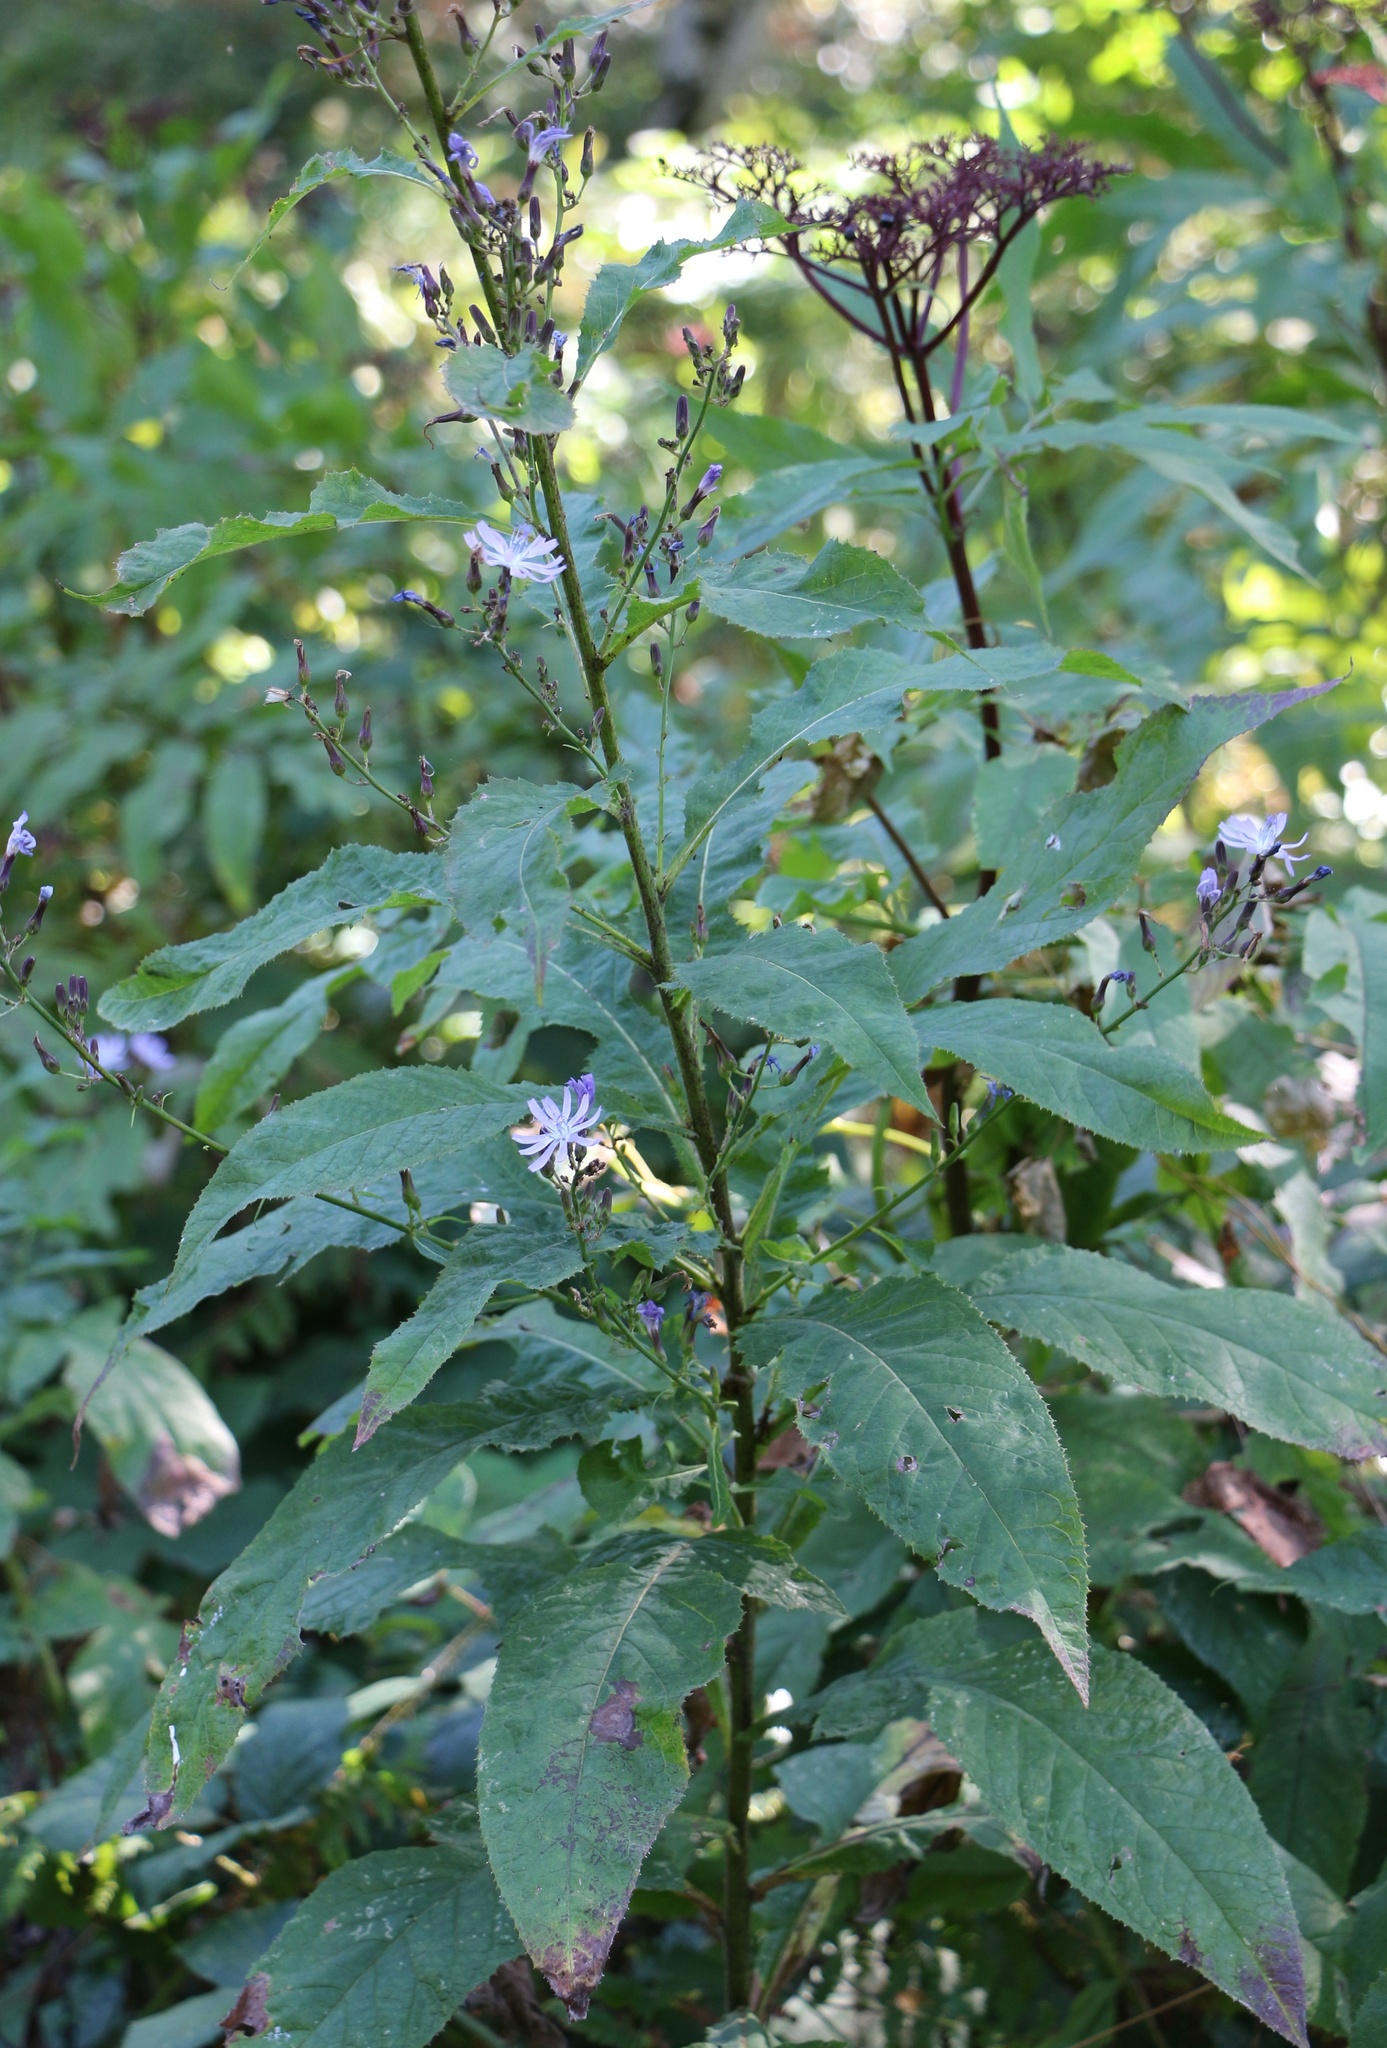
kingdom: Plantae
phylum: Tracheophyta
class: Magnoliopsida
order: Asterales
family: Asteraceae
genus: Cicerbita
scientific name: Cicerbita prenanthoides
